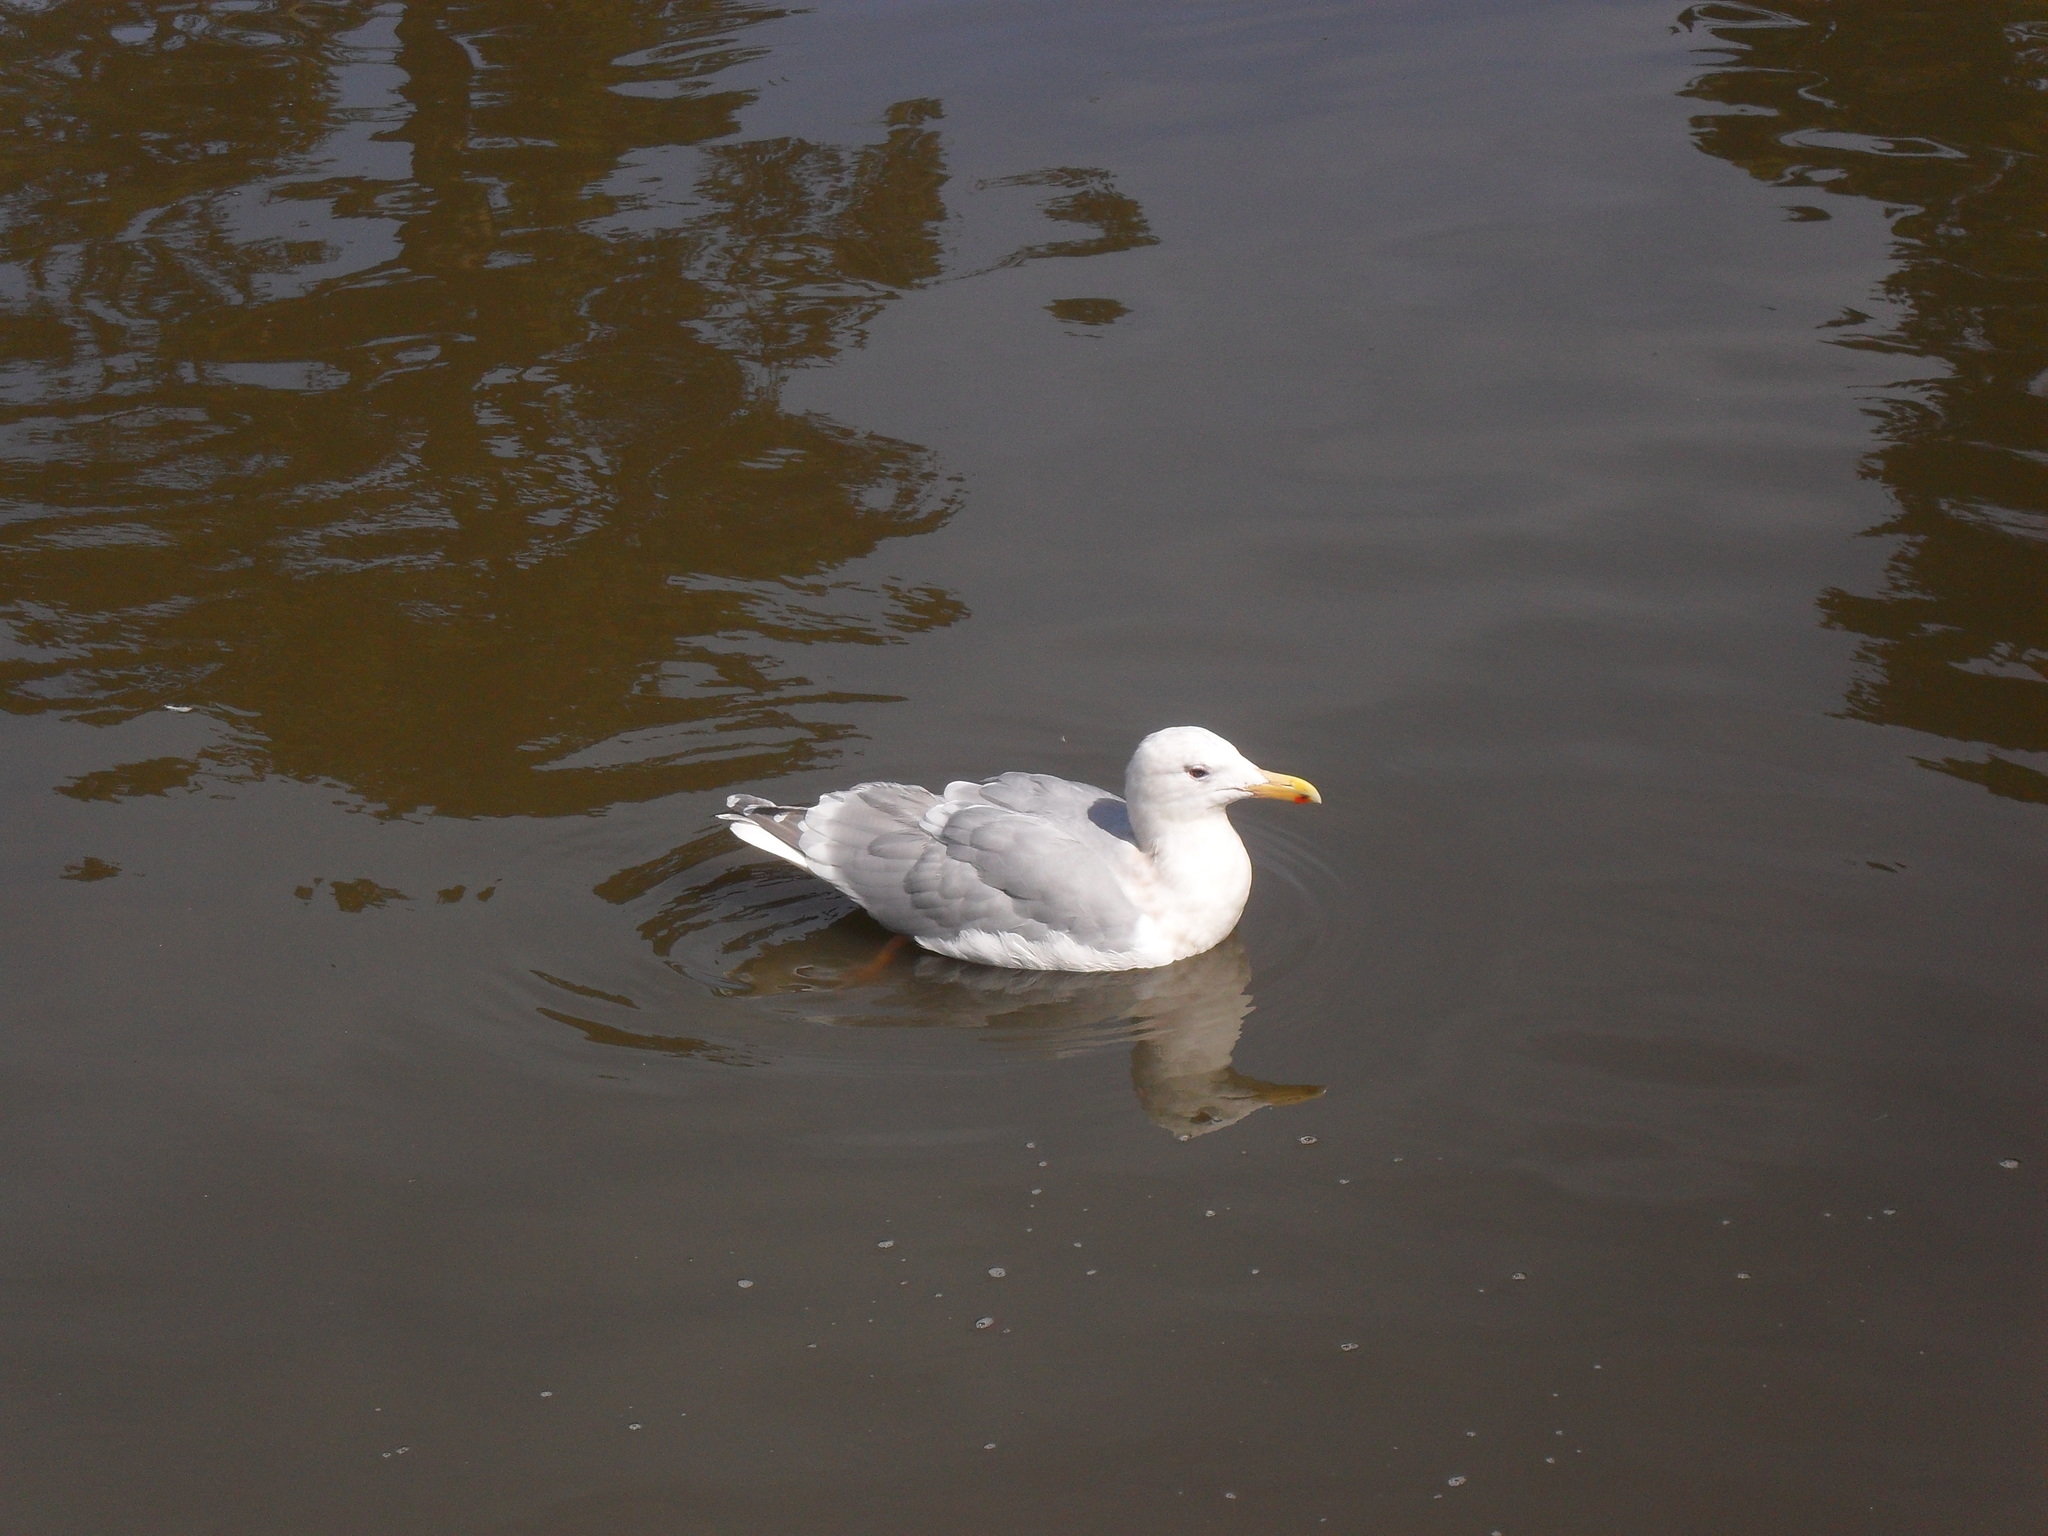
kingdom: Animalia
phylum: Chordata
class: Aves
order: Charadriiformes
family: Laridae
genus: Larus
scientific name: Larus glaucescens
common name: Glaucous-winged gull
